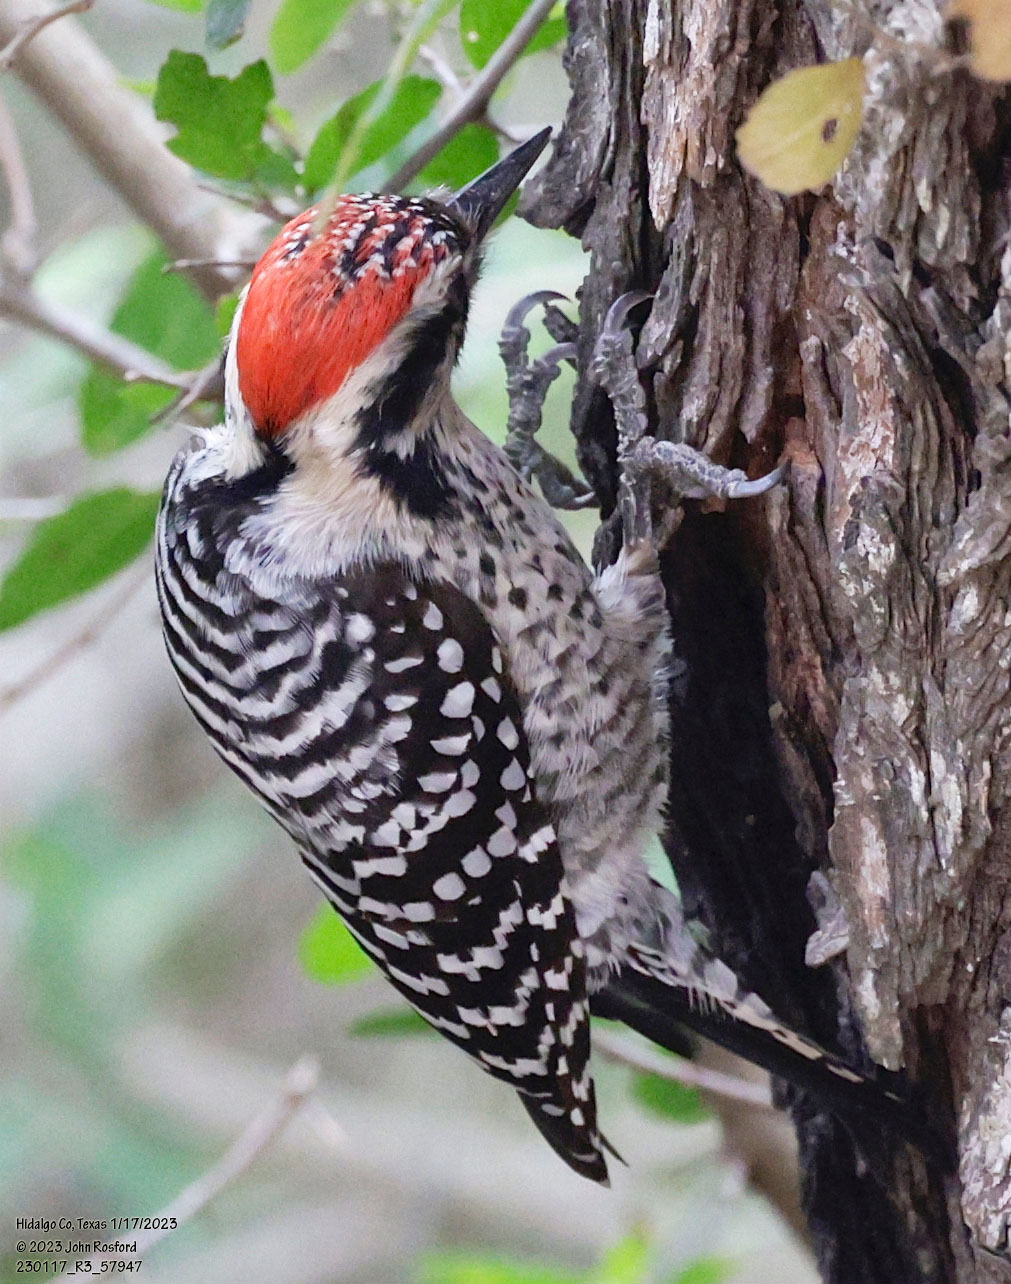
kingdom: Animalia
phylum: Chordata
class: Aves
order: Piciformes
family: Picidae
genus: Dryobates
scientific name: Dryobates scalaris
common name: Ladder-backed woodpecker
